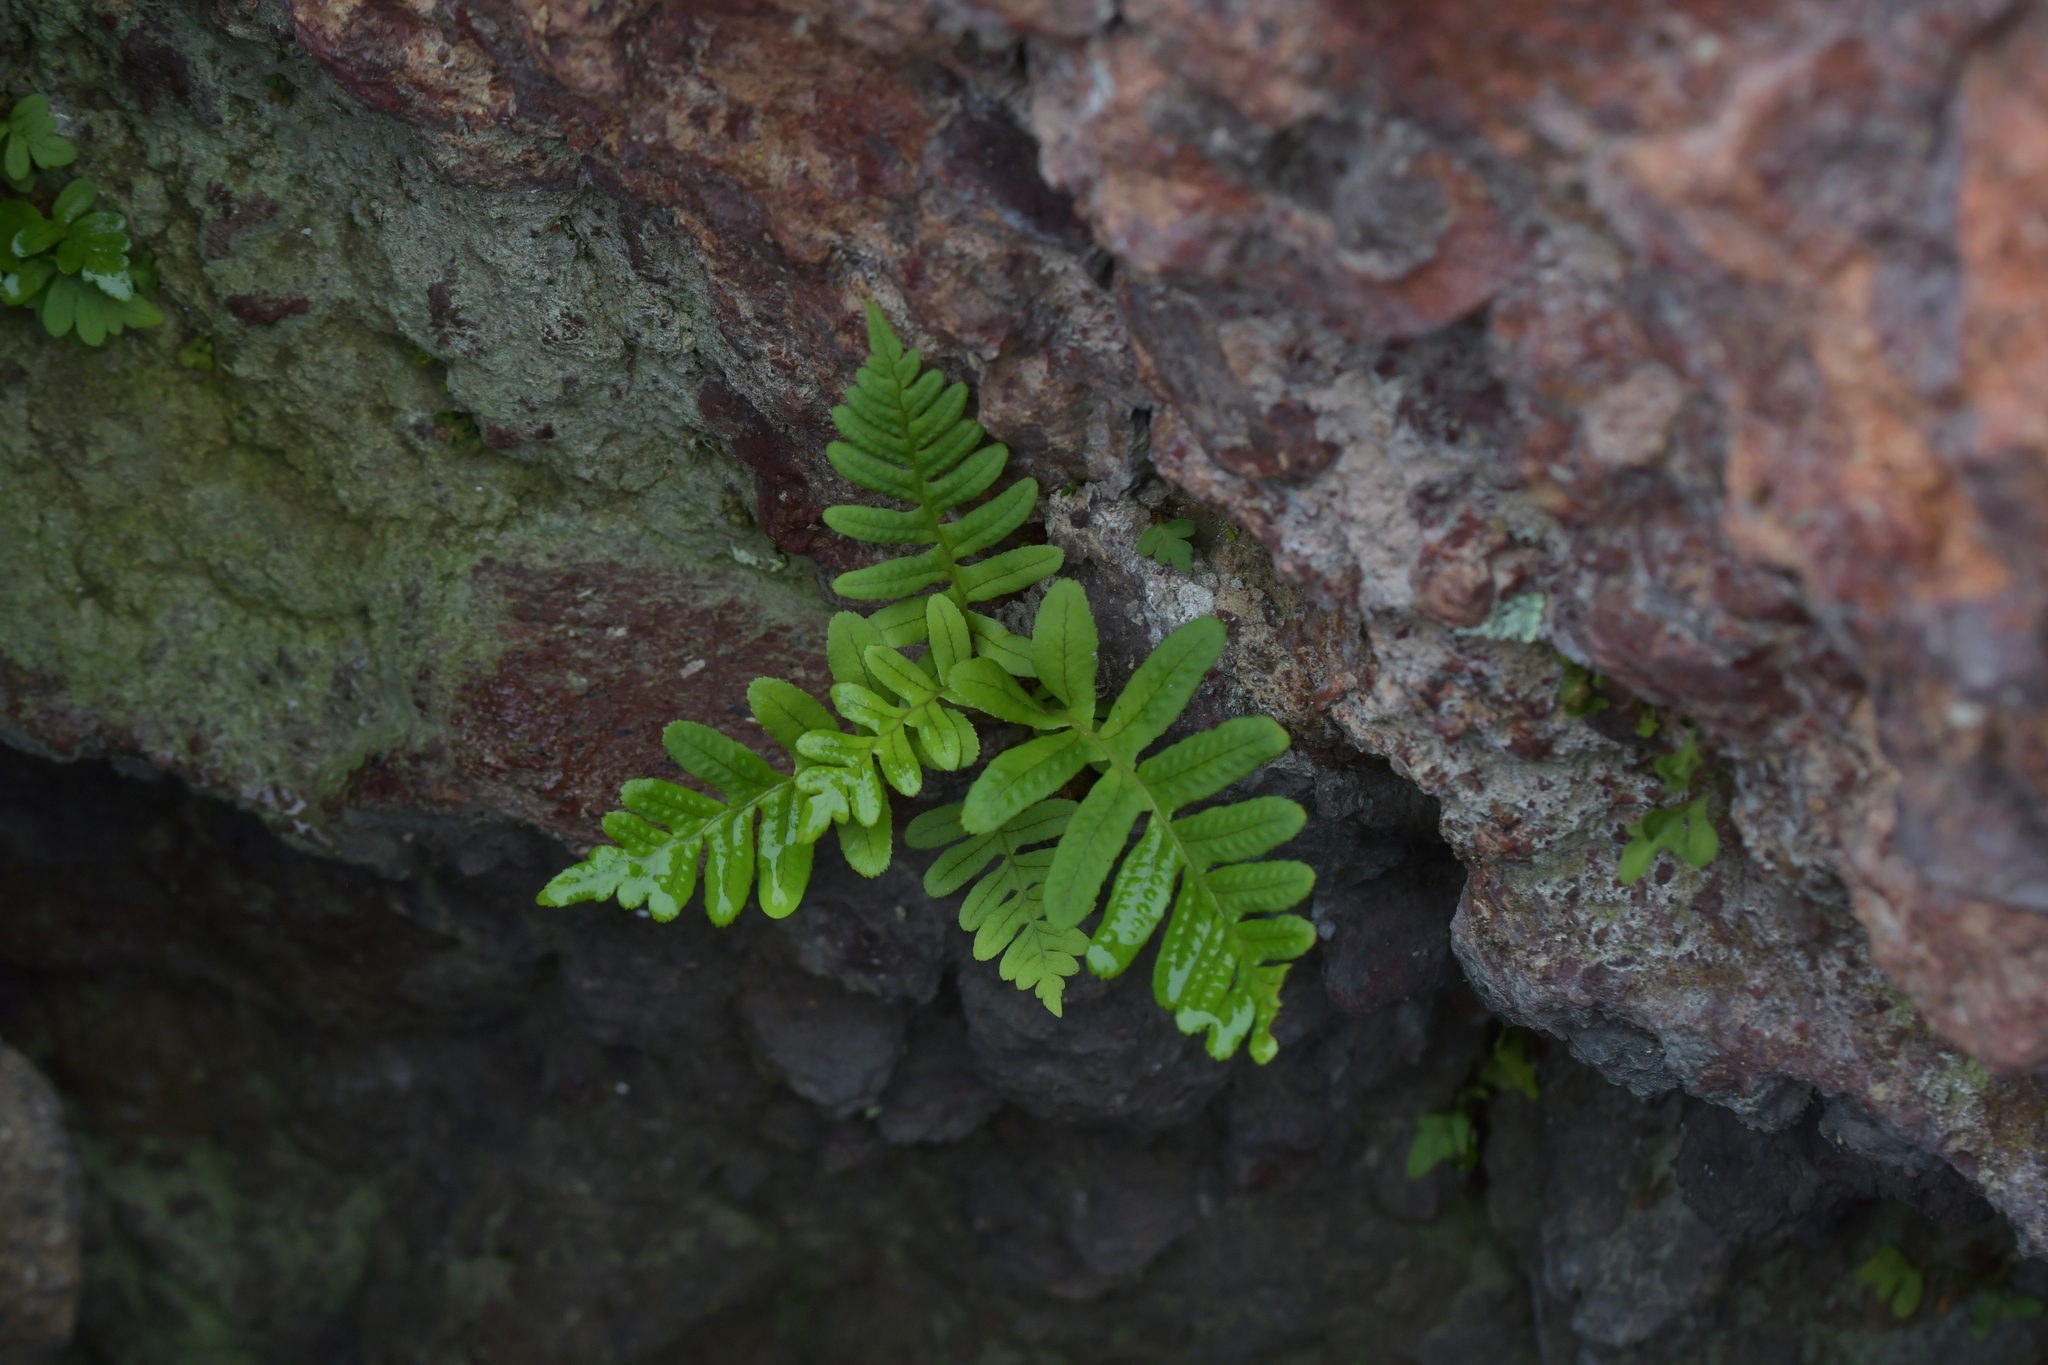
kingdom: Plantae
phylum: Tracheophyta
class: Polypodiopsida
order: Polypodiales
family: Polypodiaceae
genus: Polypodium
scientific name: Polypodium vulgare
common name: Common polypody
